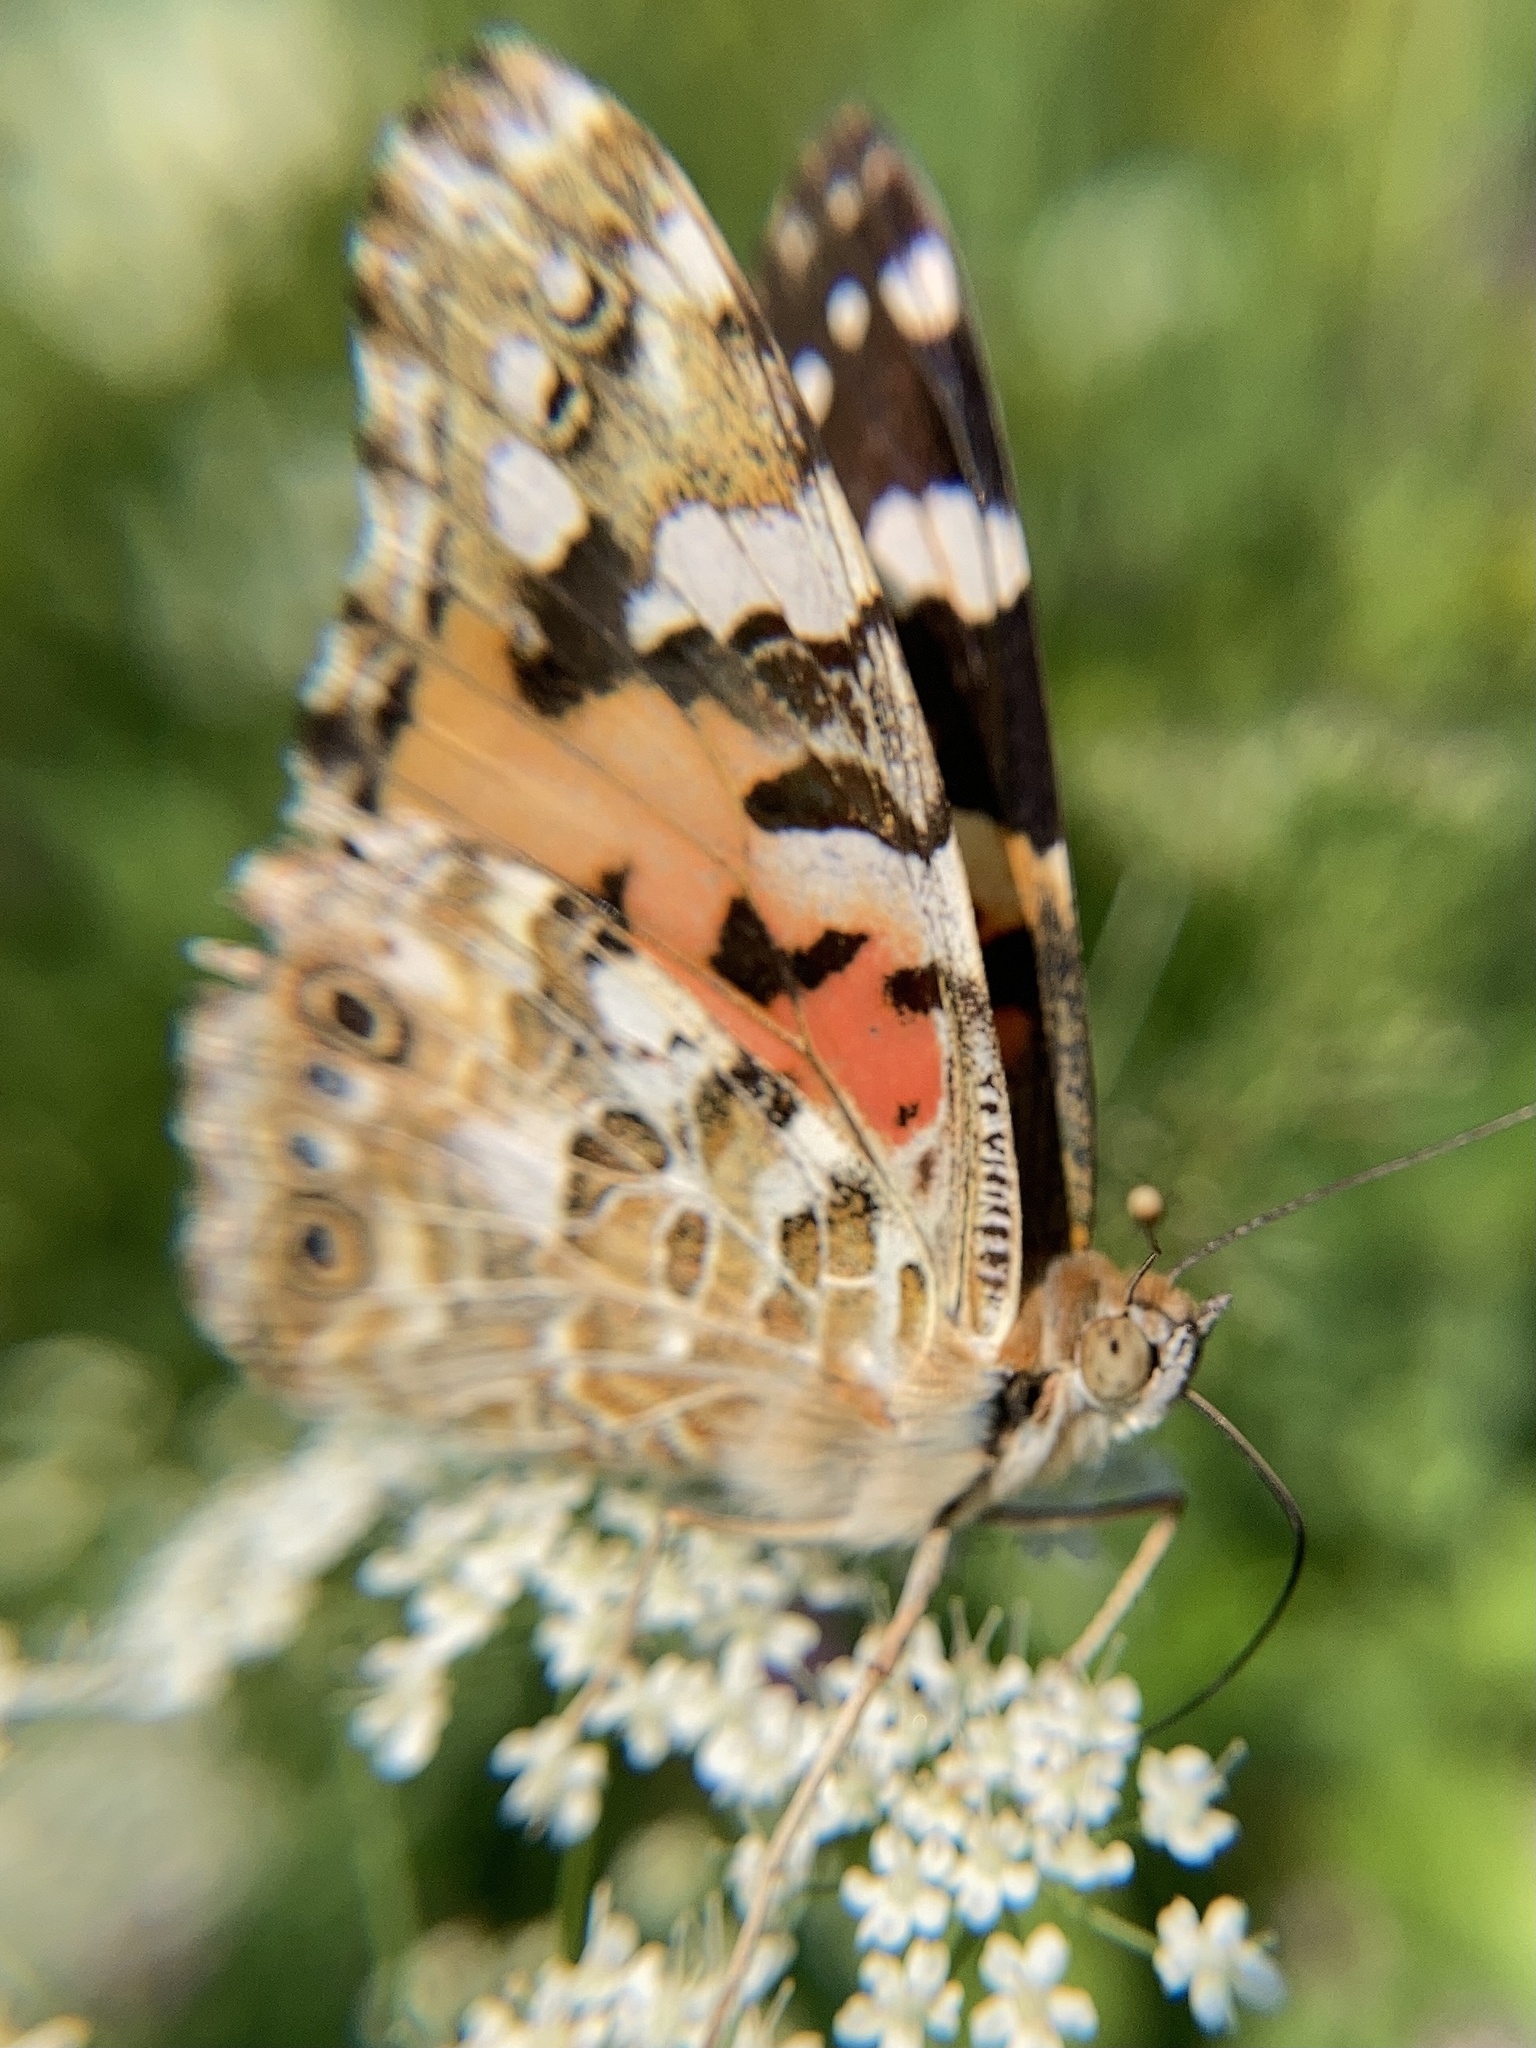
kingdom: Animalia
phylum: Arthropoda
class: Insecta
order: Lepidoptera
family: Nymphalidae
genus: Vanessa
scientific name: Vanessa cardui
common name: Painted lady
